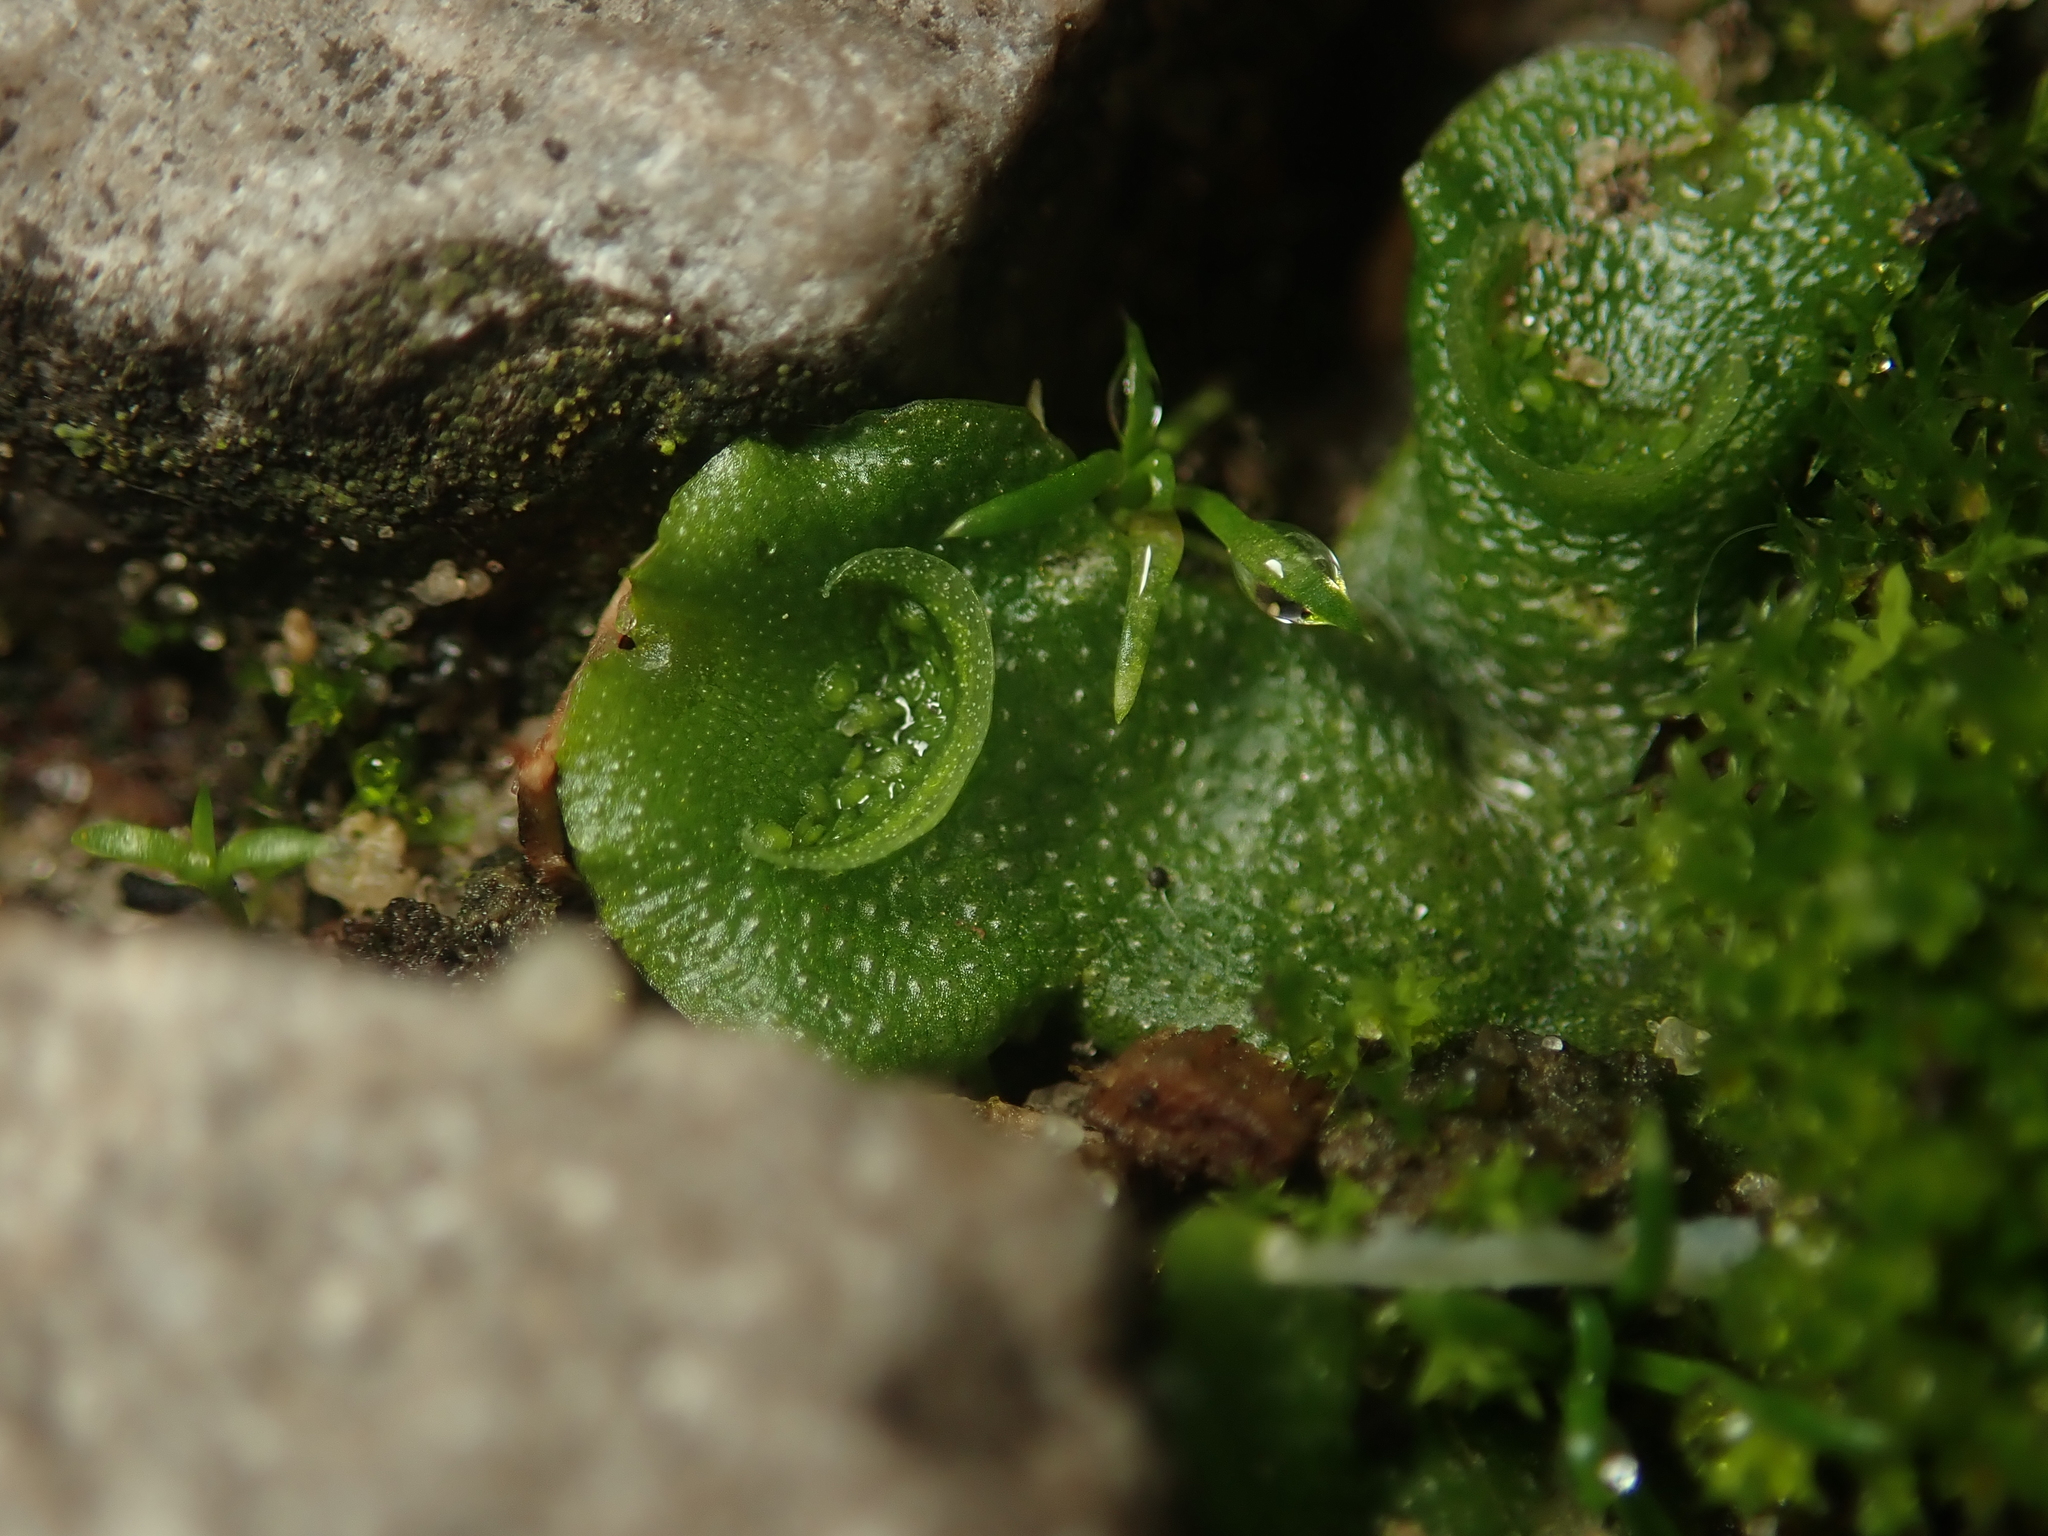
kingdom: Plantae
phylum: Marchantiophyta
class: Marchantiopsida
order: Lunulariales
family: Lunulariaceae
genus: Lunularia
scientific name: Lunularia cruciata
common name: Crescent-cup liverwort
